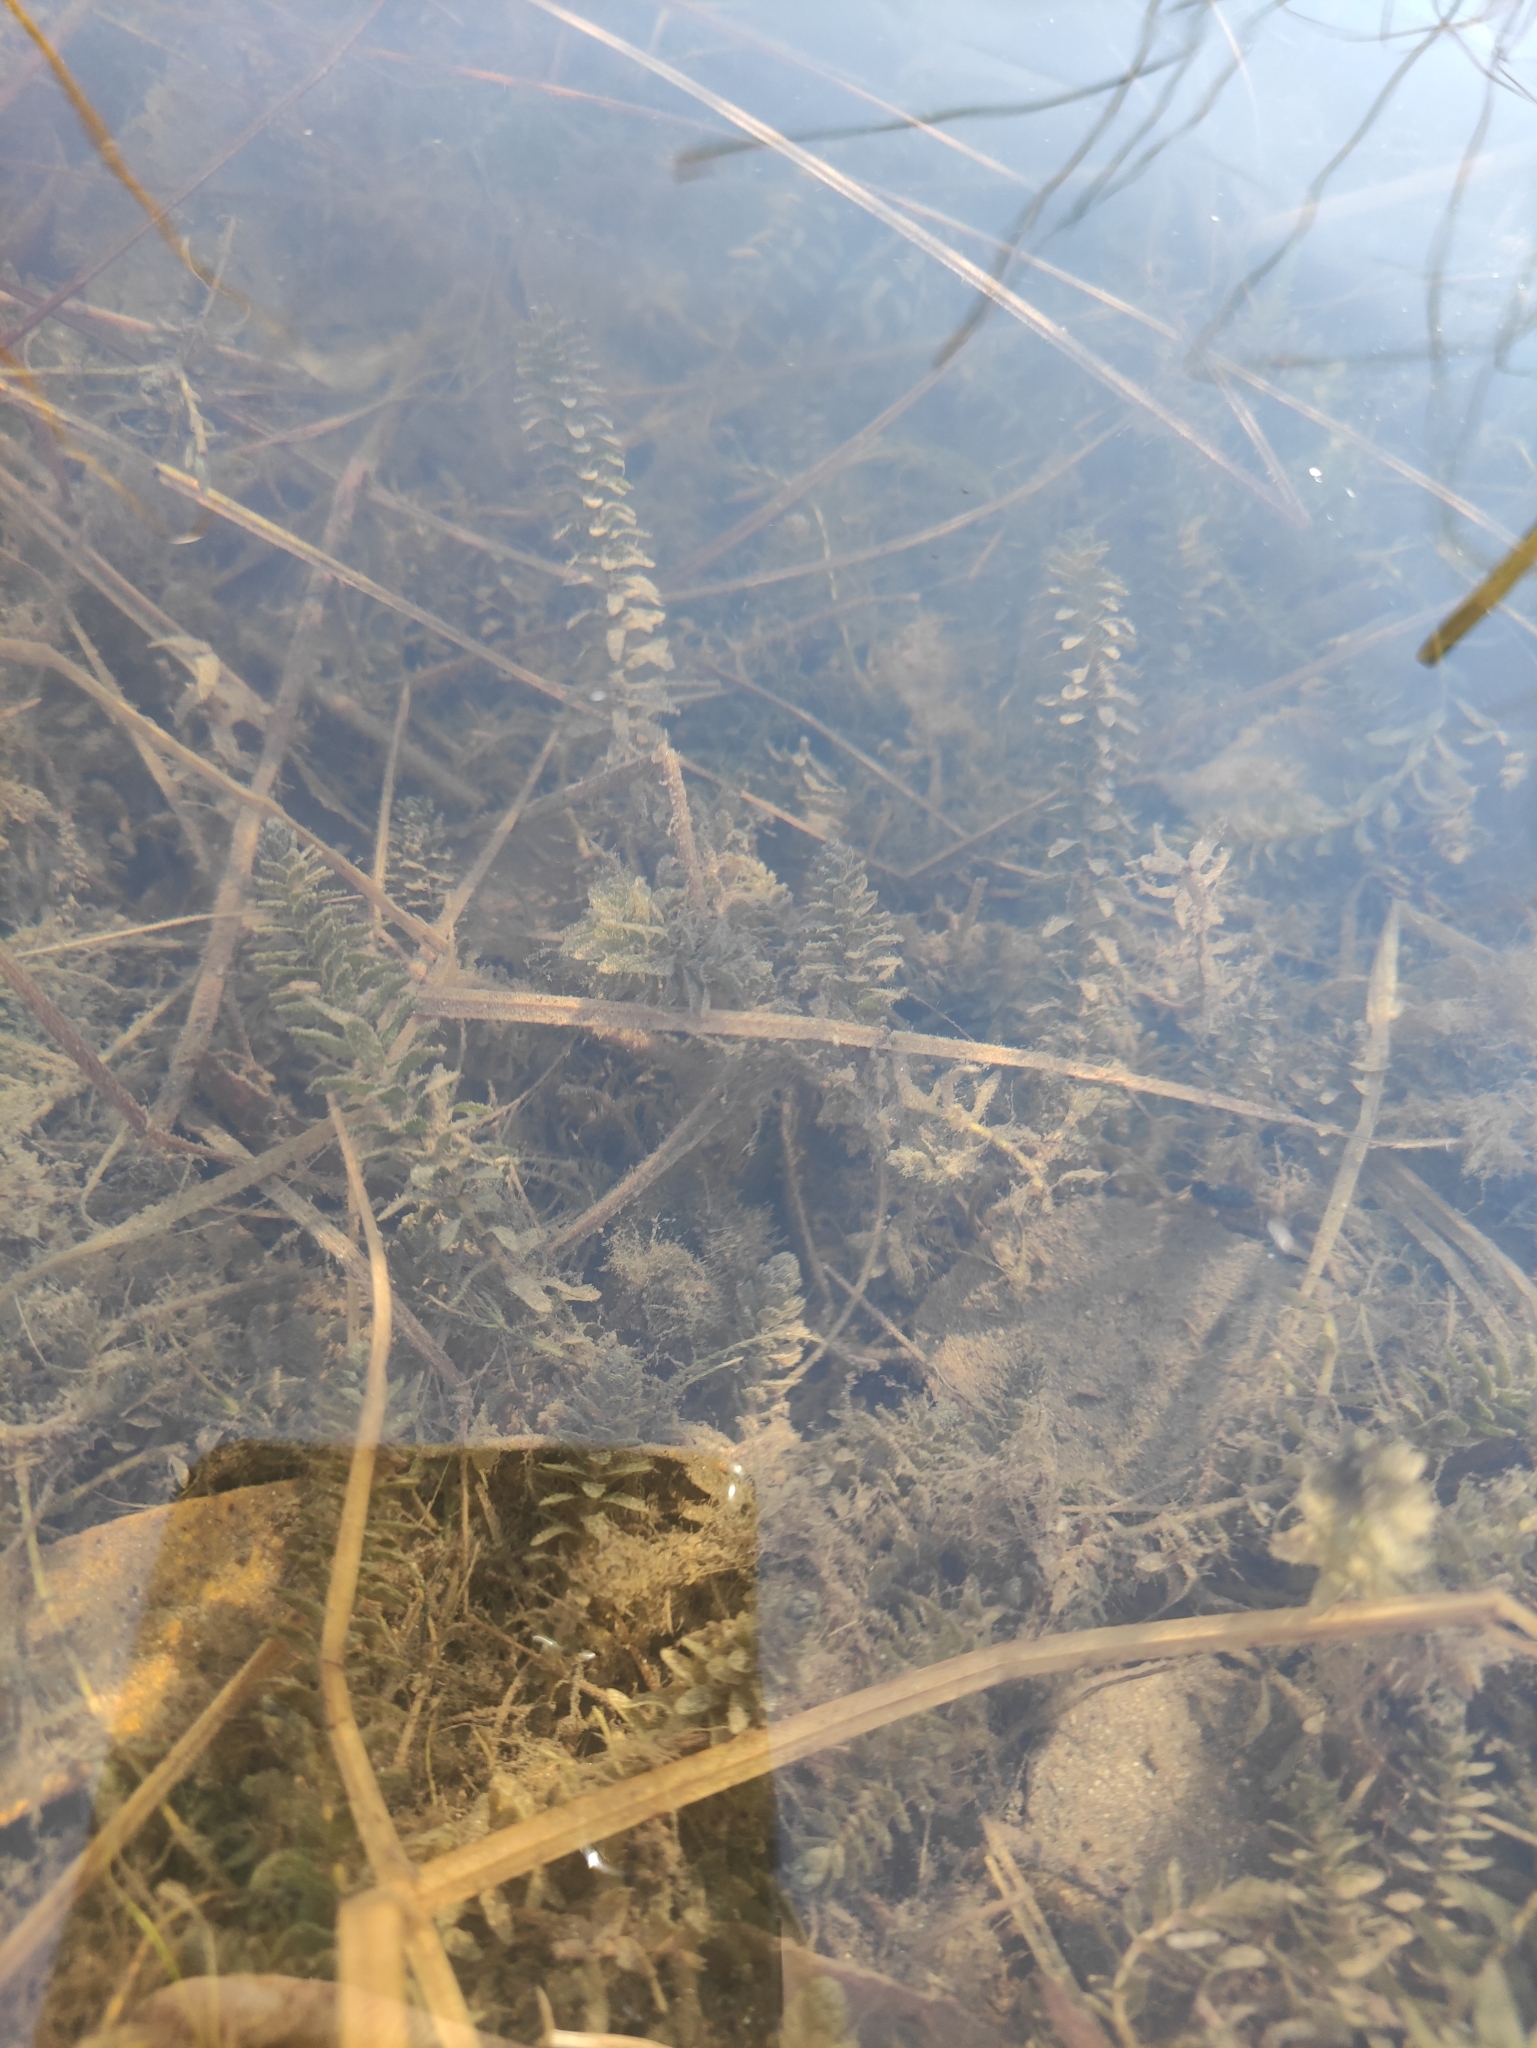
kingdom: Plantae
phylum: Tracheophyta
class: Liliopsida
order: Alismatales
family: Hydrocharitaceae
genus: Elodea
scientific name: Elodea canadensis
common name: Canadian waterweed
